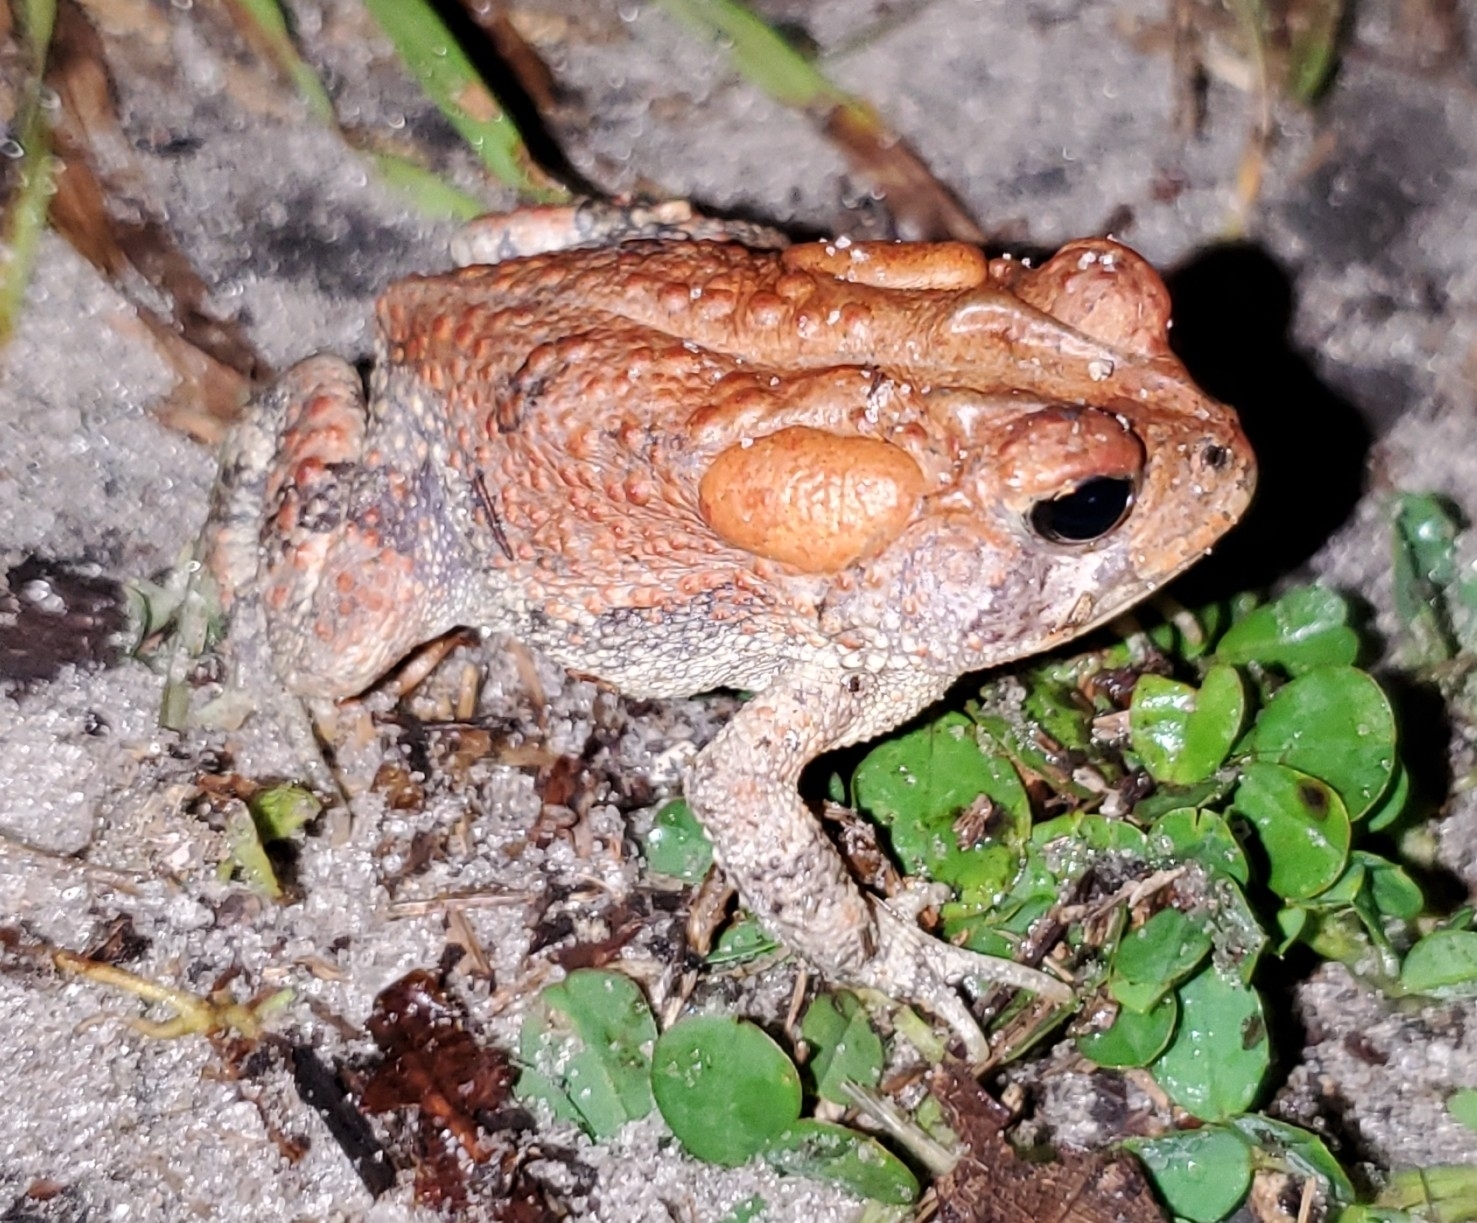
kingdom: Animalia
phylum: Chordata
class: Amphibia
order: Anura
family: Bufonidae
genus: Anaxyrus
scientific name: Anaxyrus terrestris
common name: Southern toad
